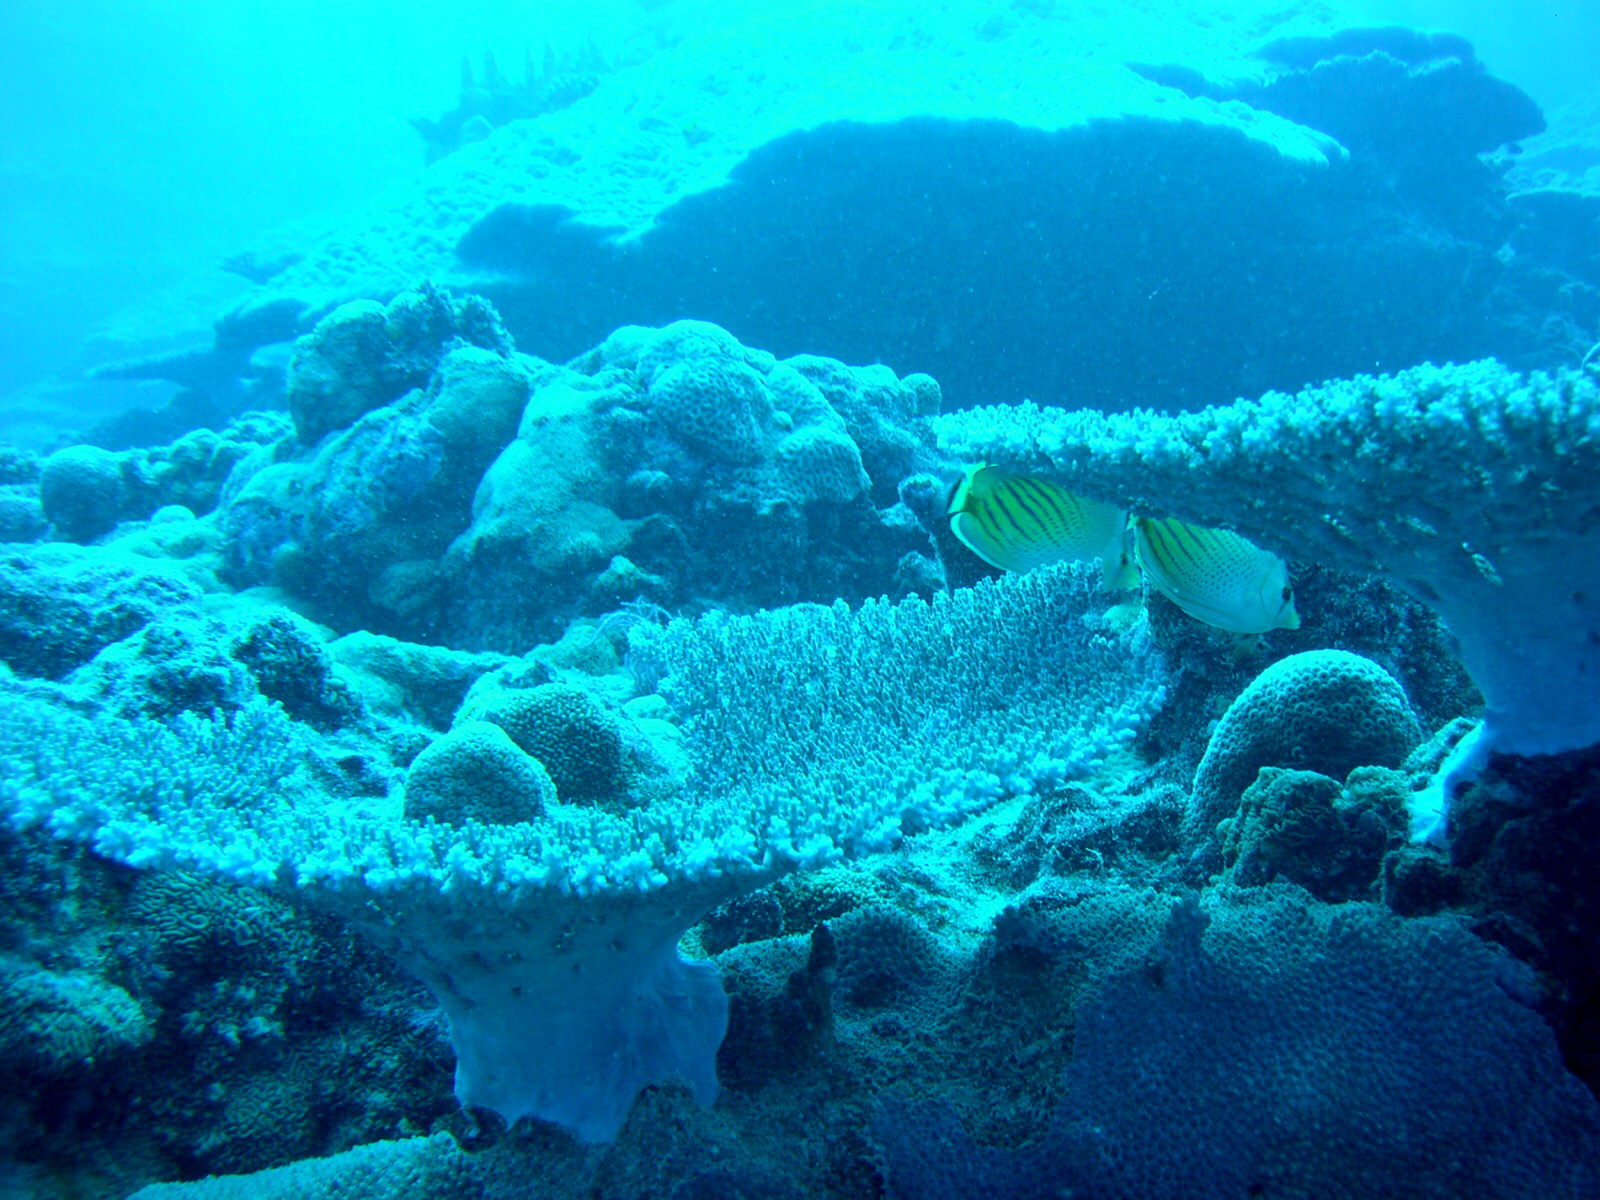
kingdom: Animalia
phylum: Chordata
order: Perciformes
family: Chaetodontidae
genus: Chaetodon
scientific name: Chaetodon pelewensis
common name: Dot-and-dash butterflyfish
